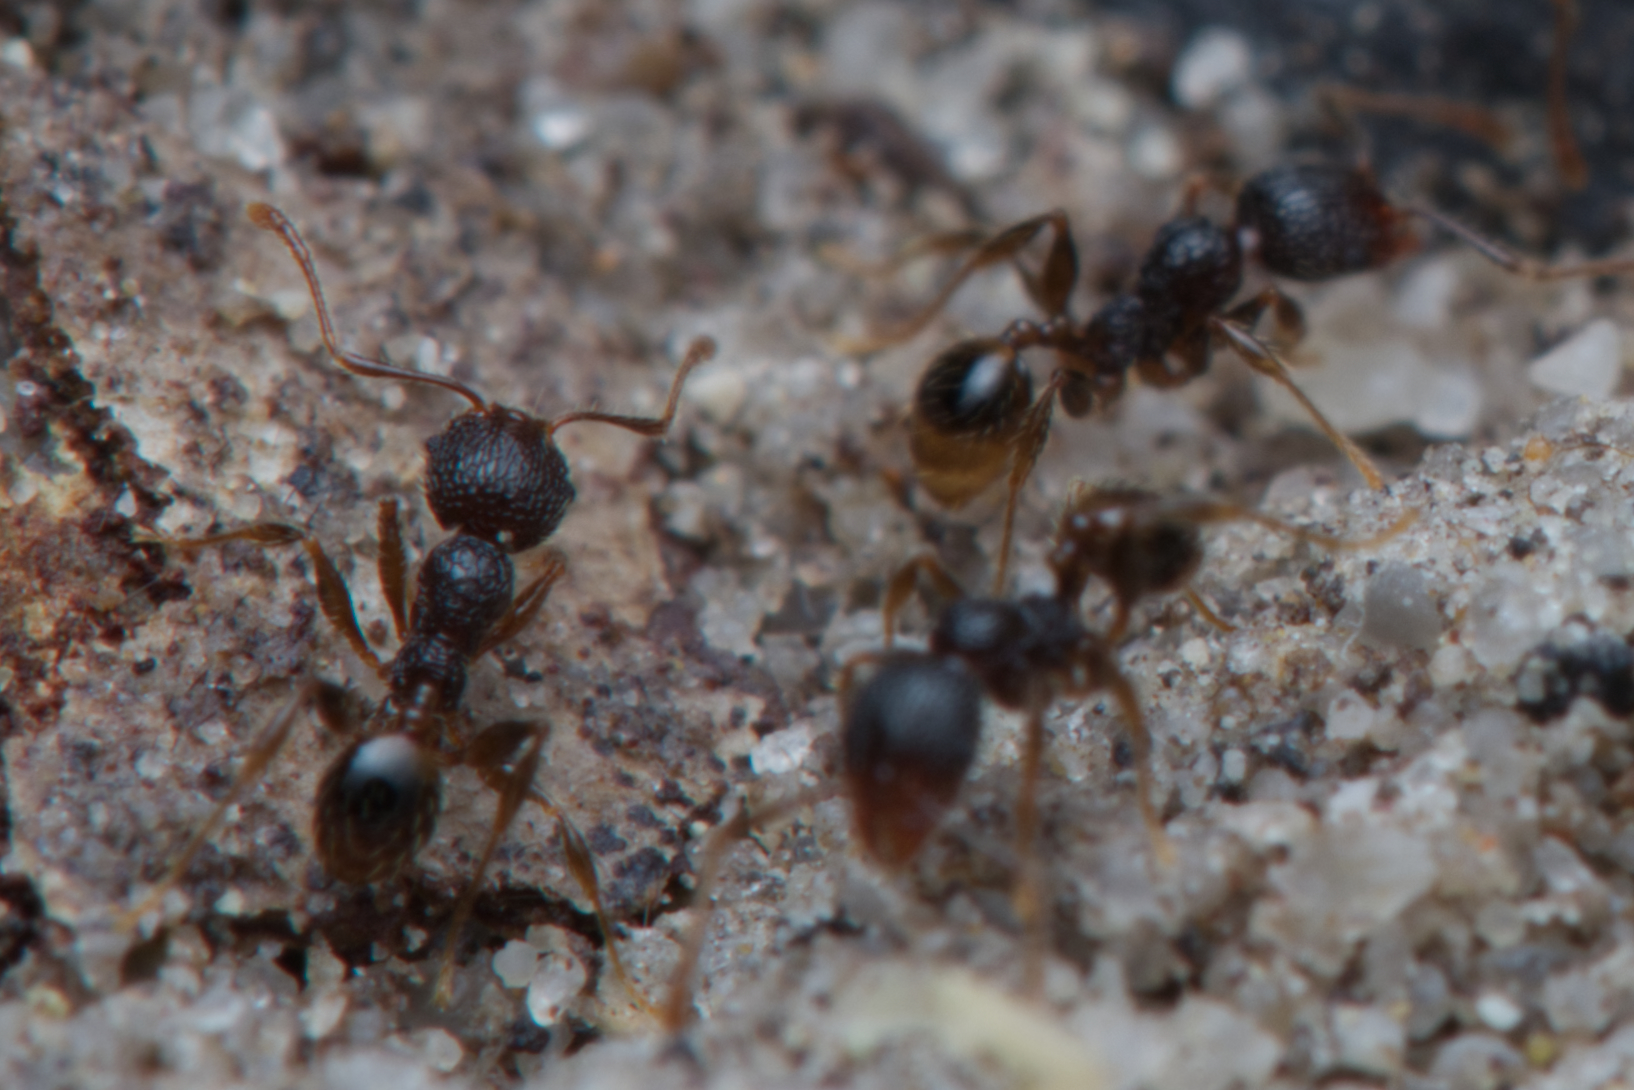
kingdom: Animalia
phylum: Arthropoda
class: Insecta
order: Hymenoptera
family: Formicidae
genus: Pheidole
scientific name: Pheidole anthracina
